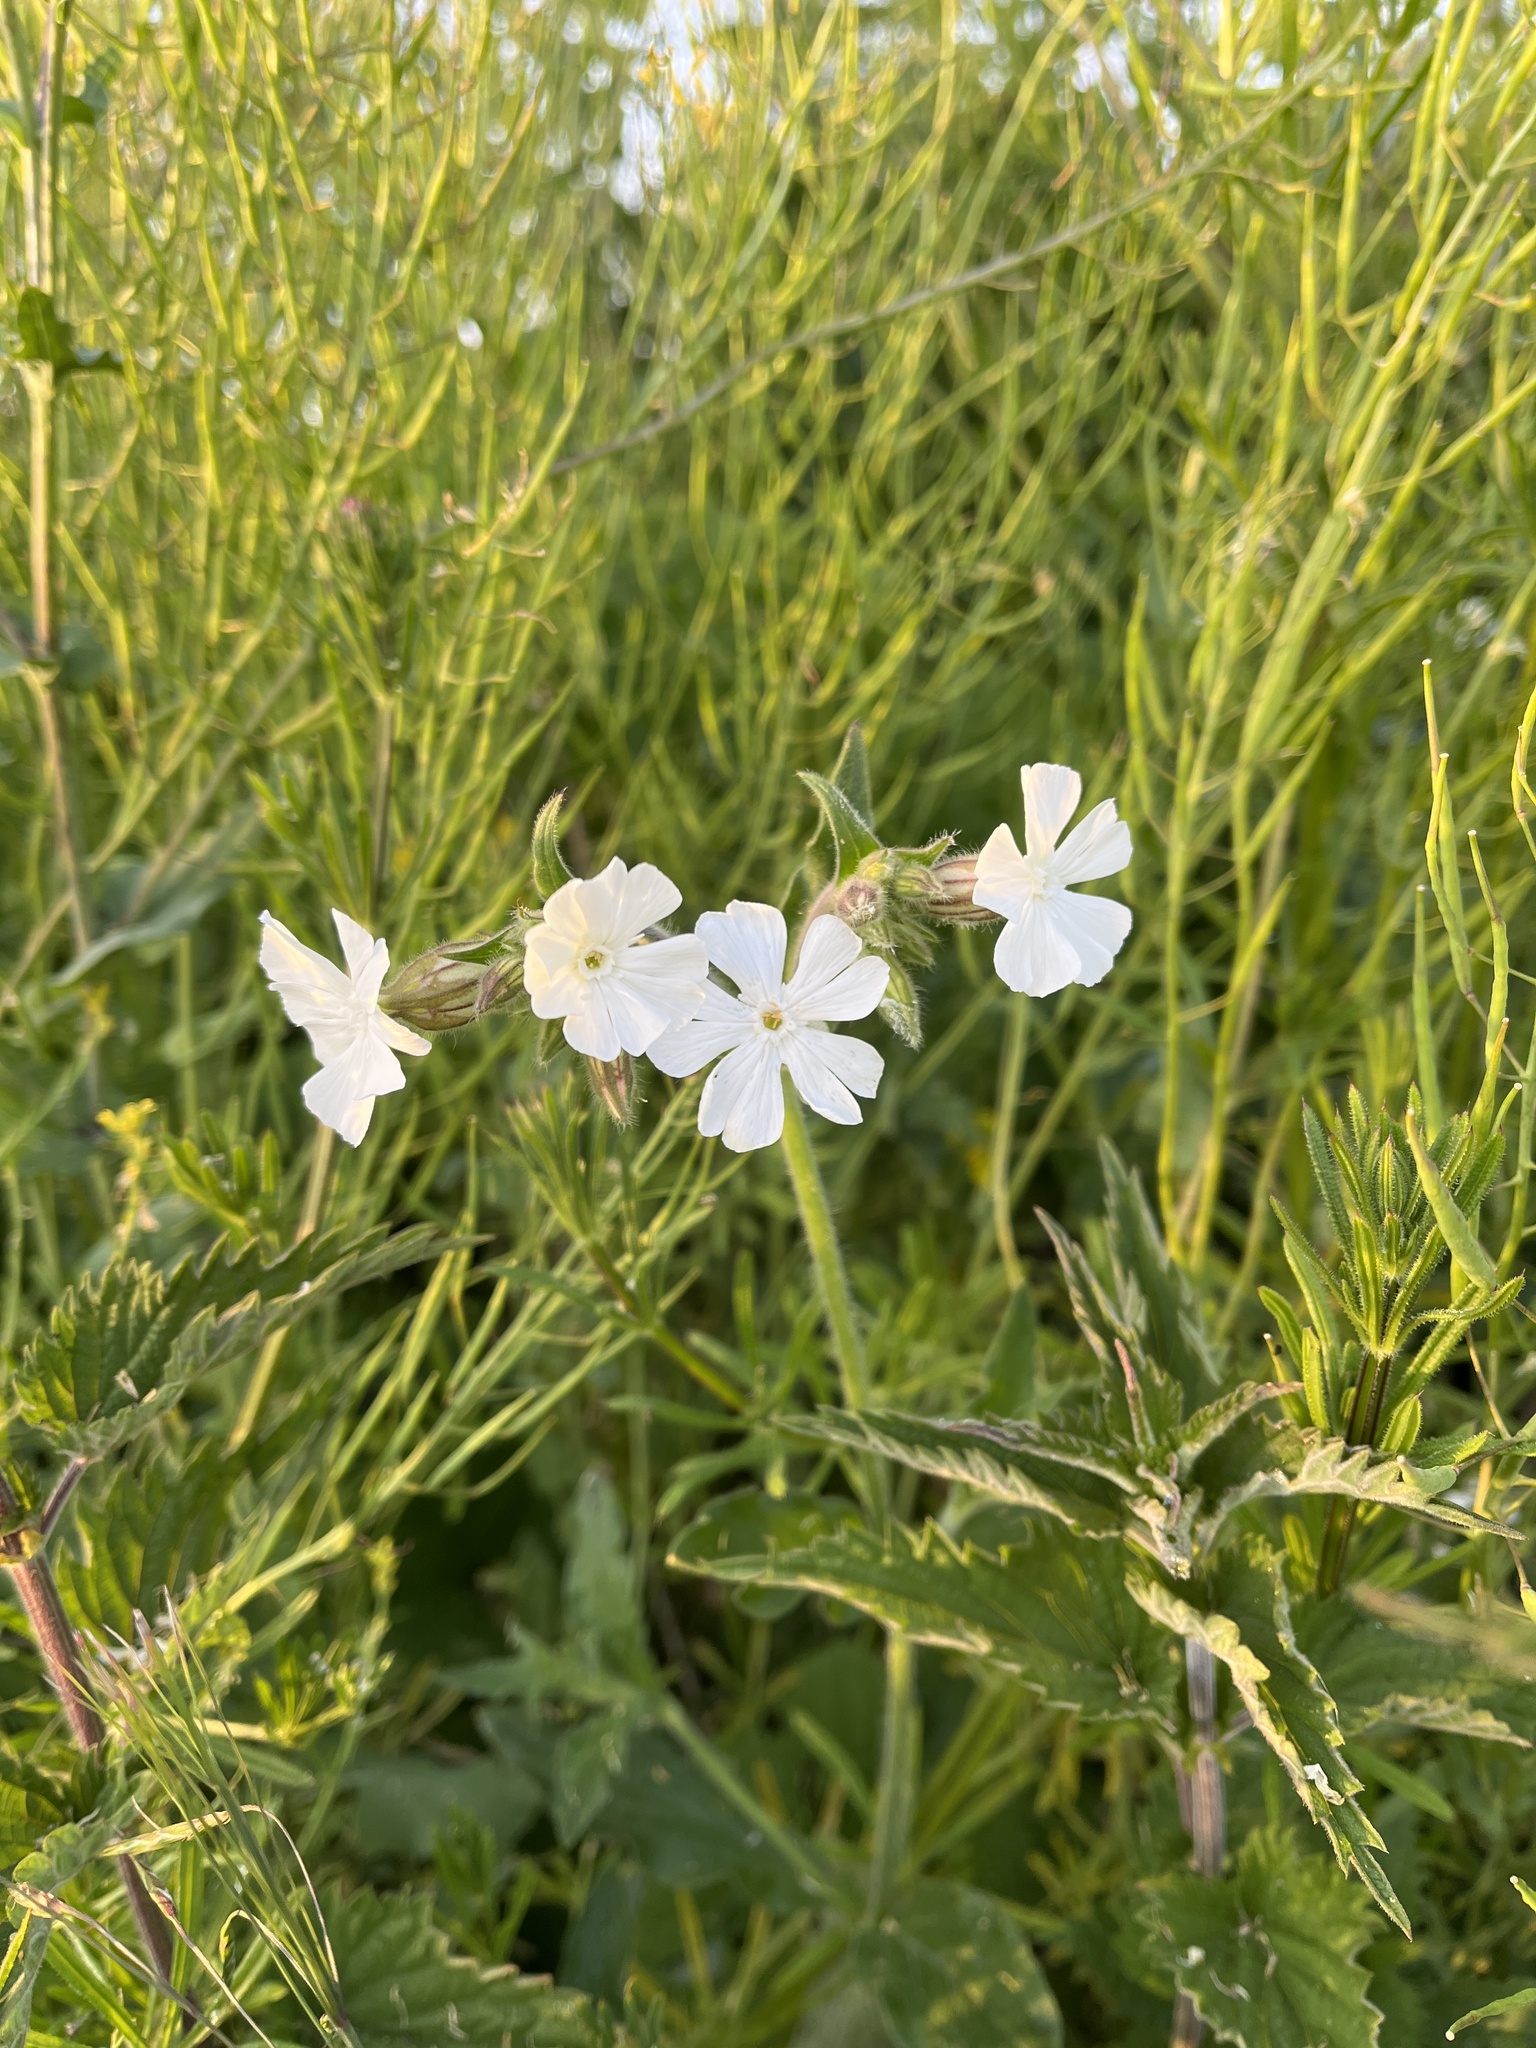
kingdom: Plantae
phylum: Tracheophyta
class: Magnoliopsida
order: Caryophyllales
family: Caryophyllaceae
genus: Silene
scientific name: Silene latifolia
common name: White campion
